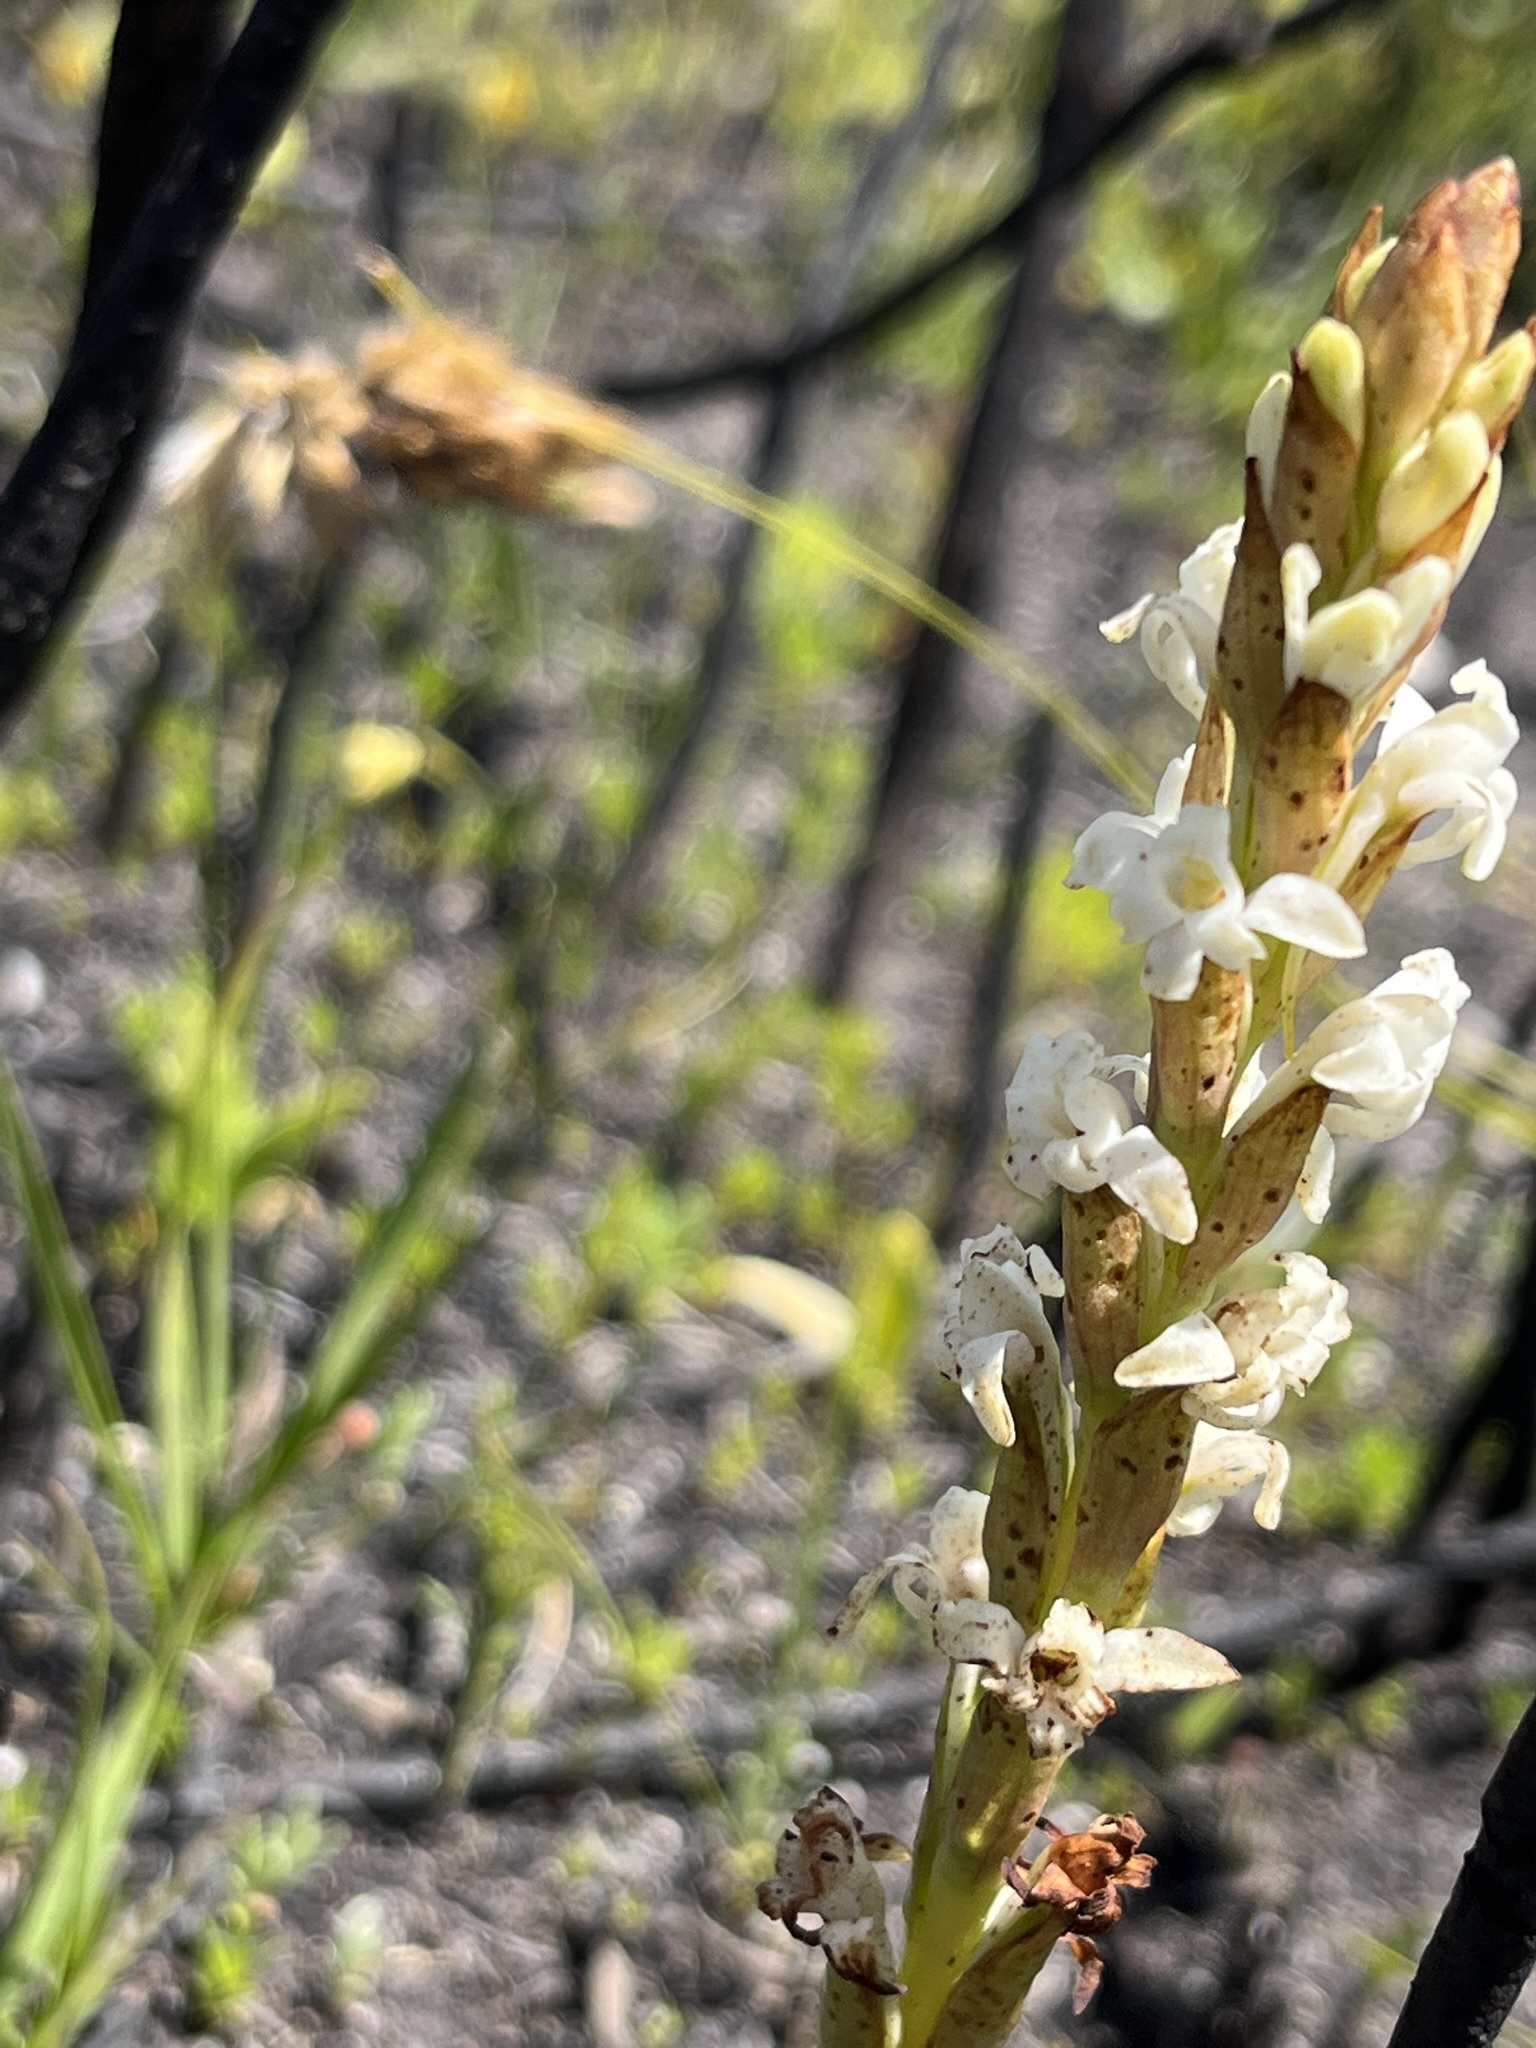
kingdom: Plantae
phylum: Tracheophyta
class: Liliopsida
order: Asparagales
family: Orchidaceae
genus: Satyrium
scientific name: Satyrium stenopetalum
